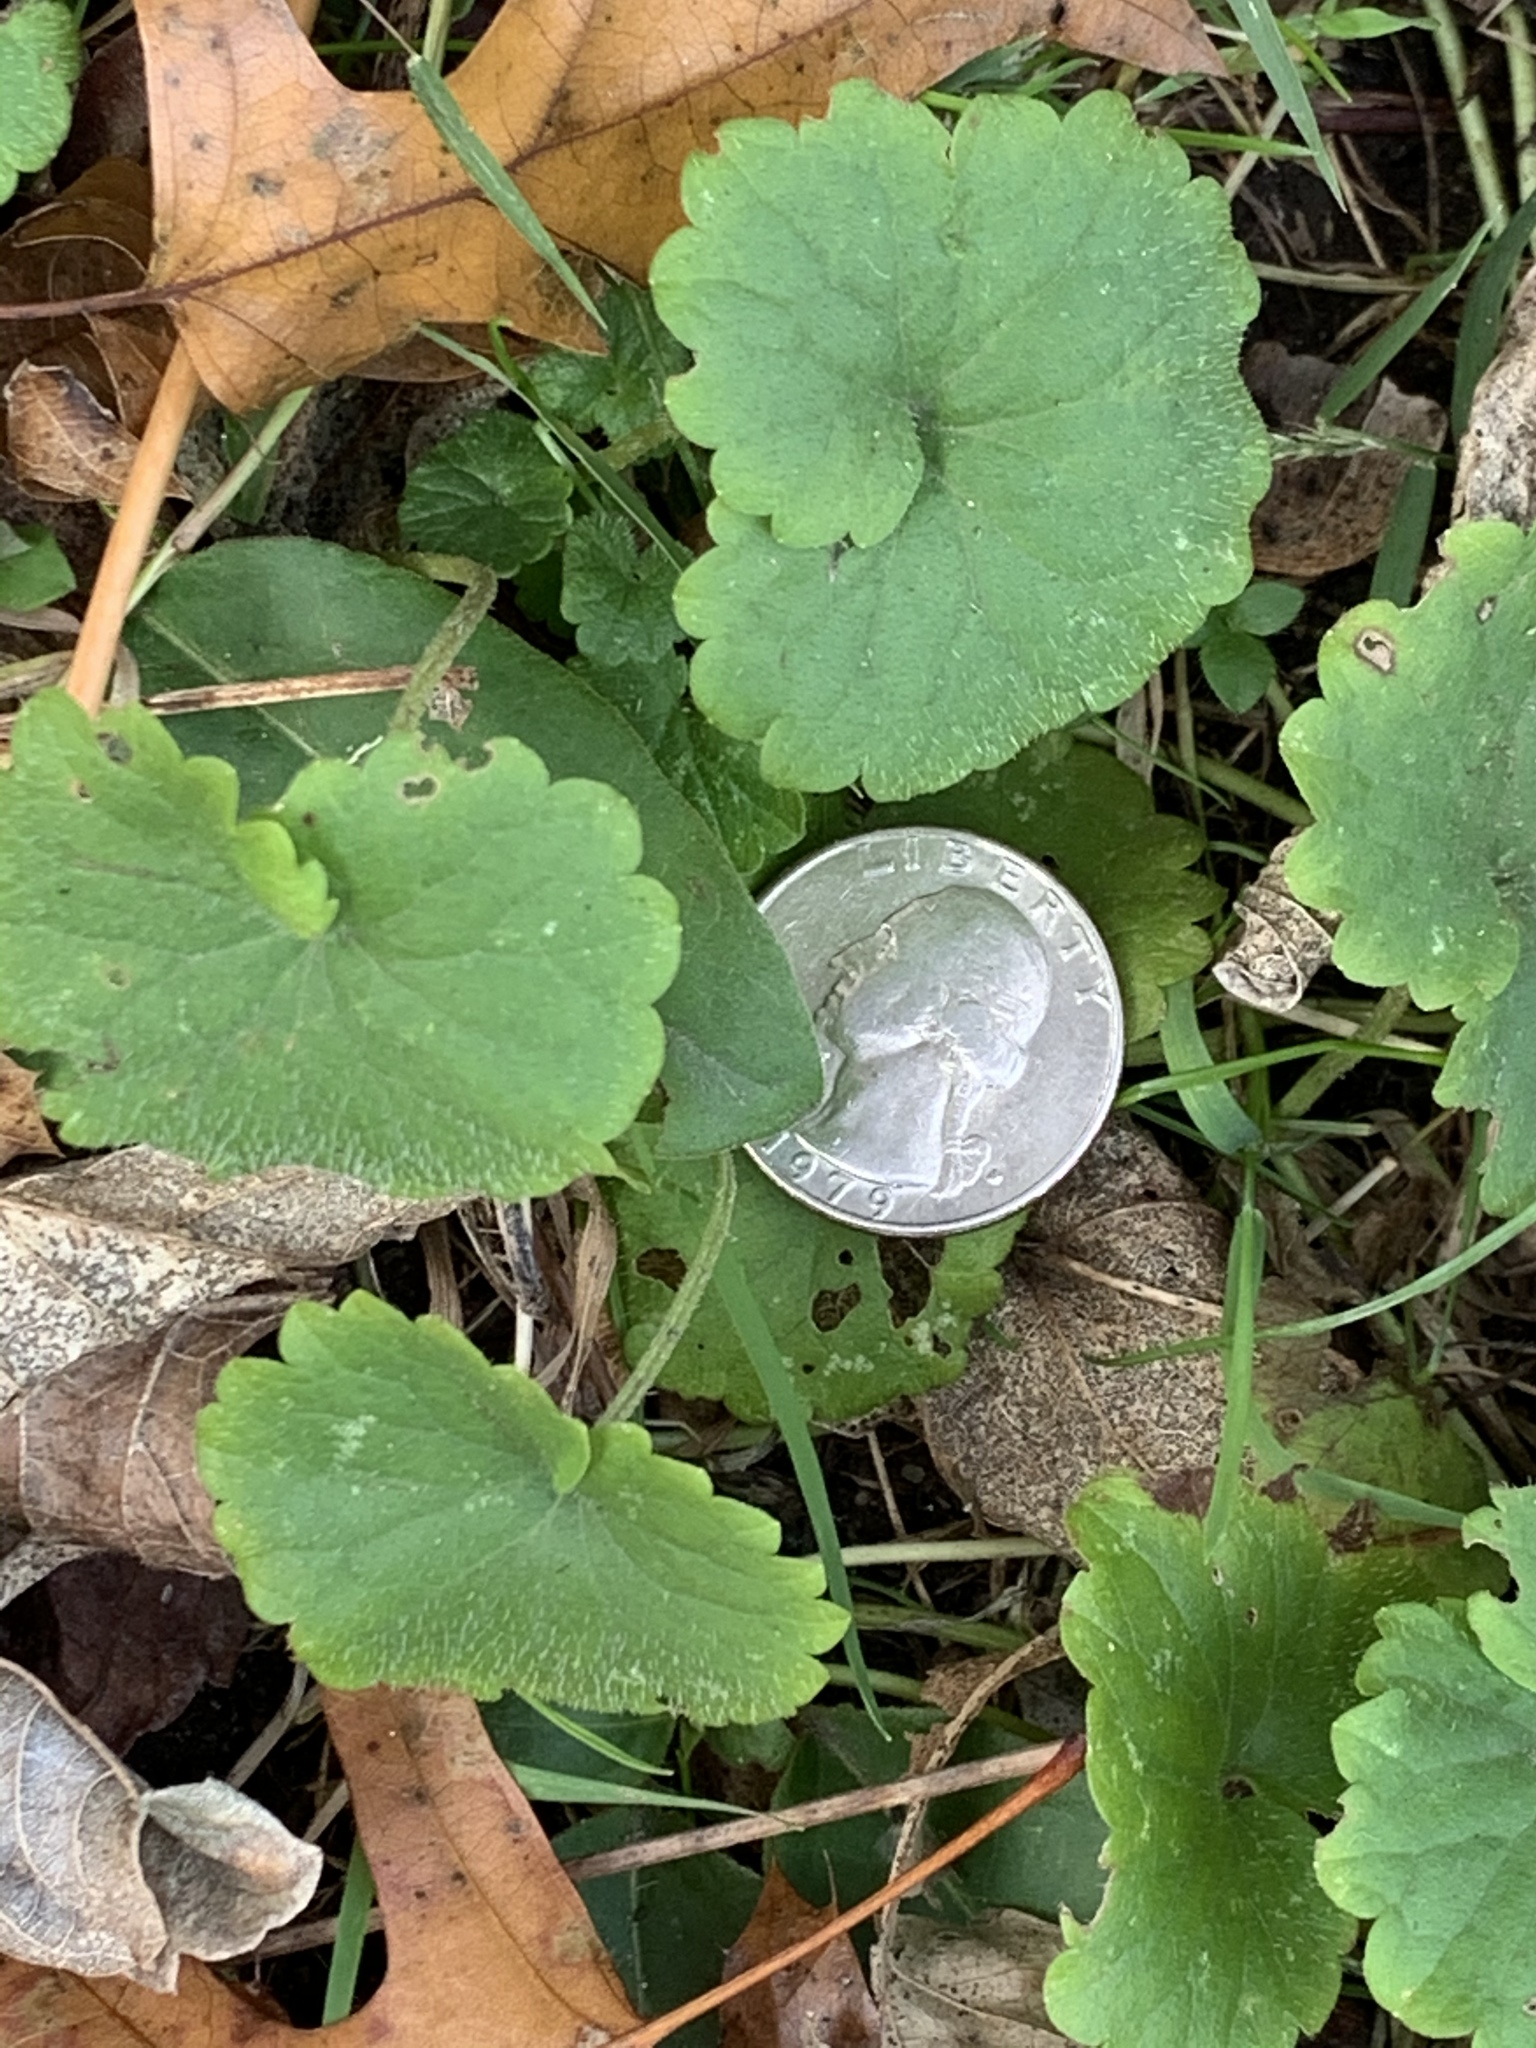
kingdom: Plantae
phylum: Tracheophyta
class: Magnoliopsida
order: Lamiales
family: Lamiaceae
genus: Glechoma
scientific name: Glechoma hederacea
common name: Ground ivy
